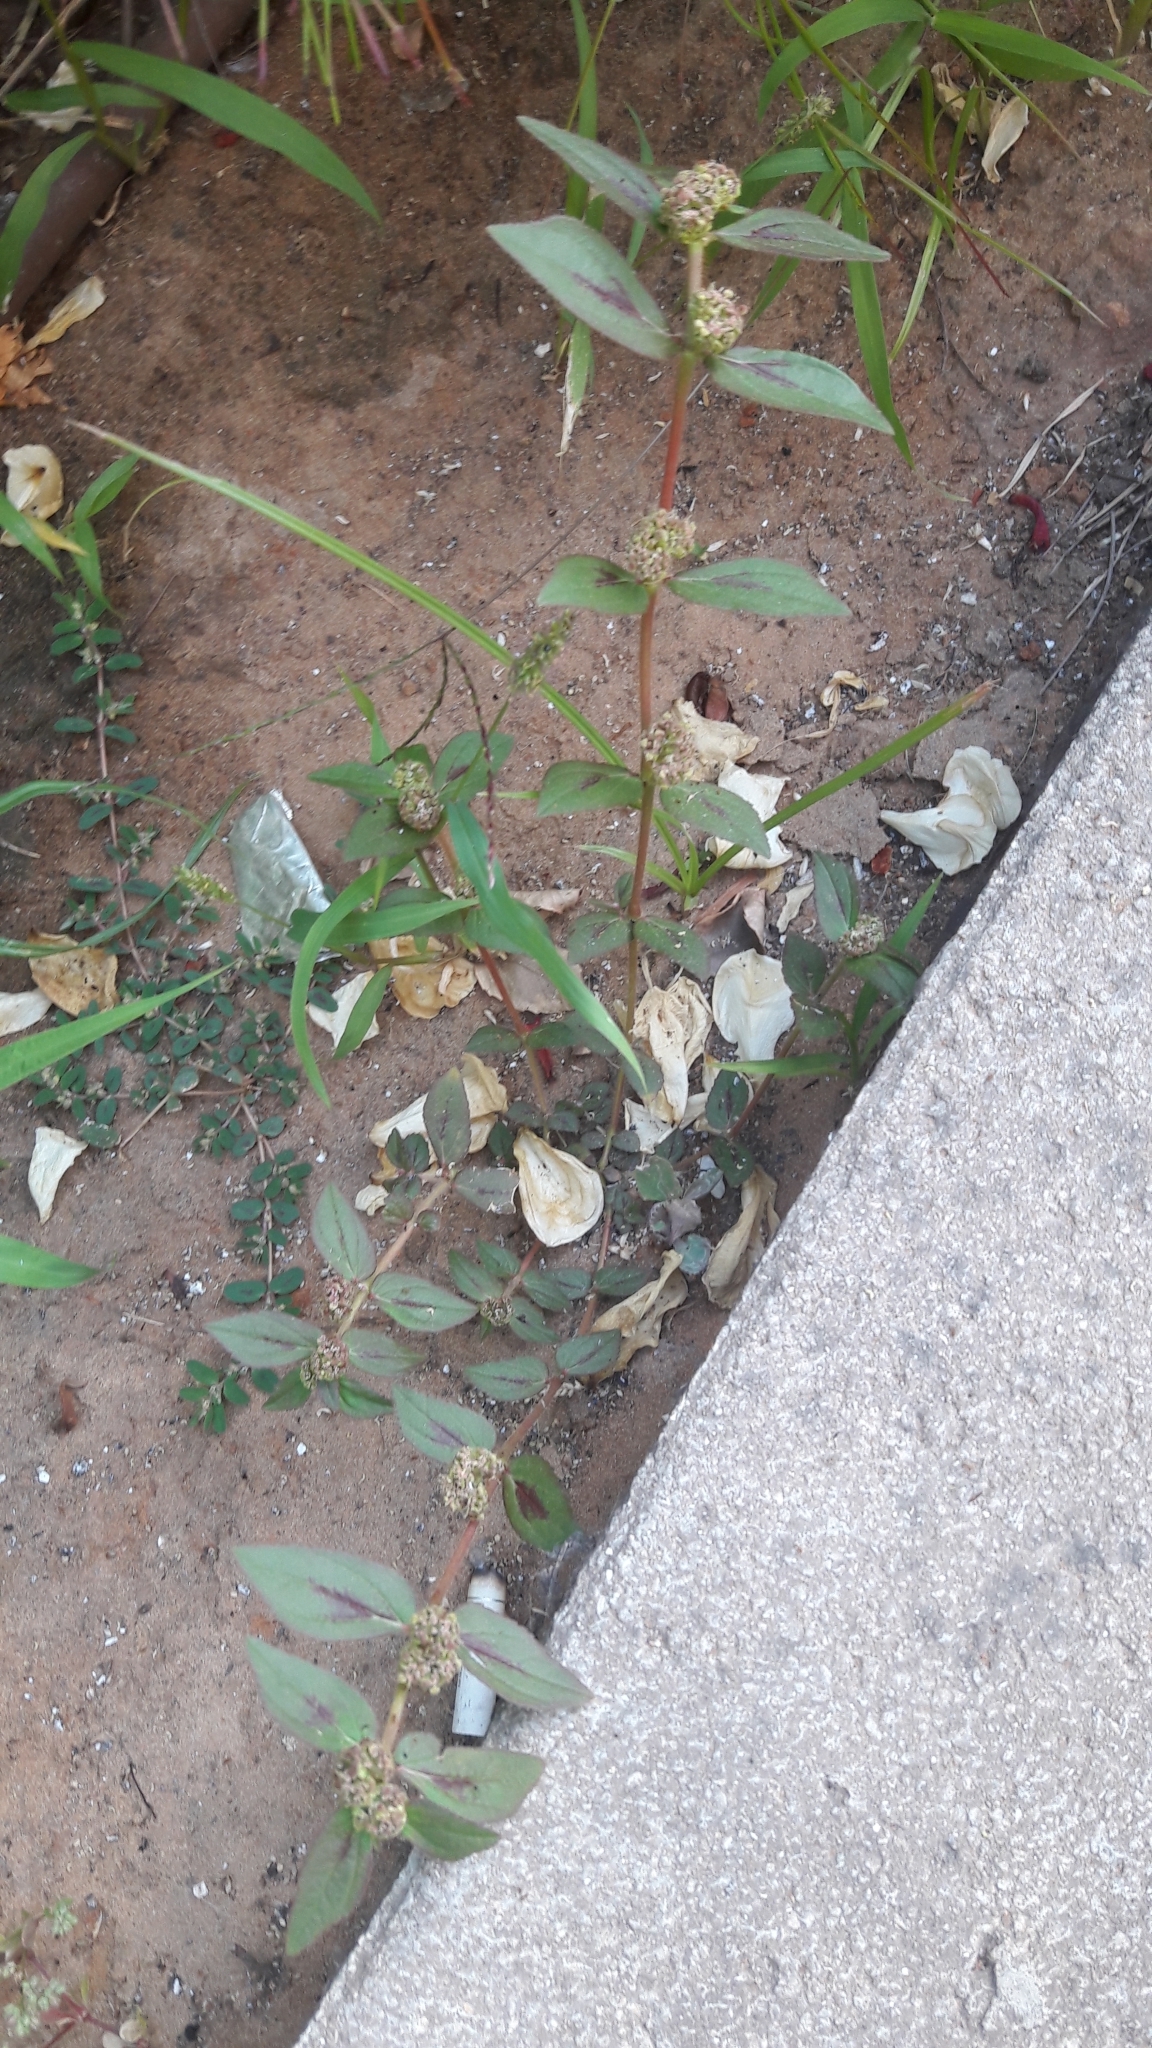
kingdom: Plantae
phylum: Tracheophyta
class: Magnoliopsida
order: Malpighiales
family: Euphorbiaceae
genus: Euphorbia
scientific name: Euphorbia hirta
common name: Pillpod sandmat
